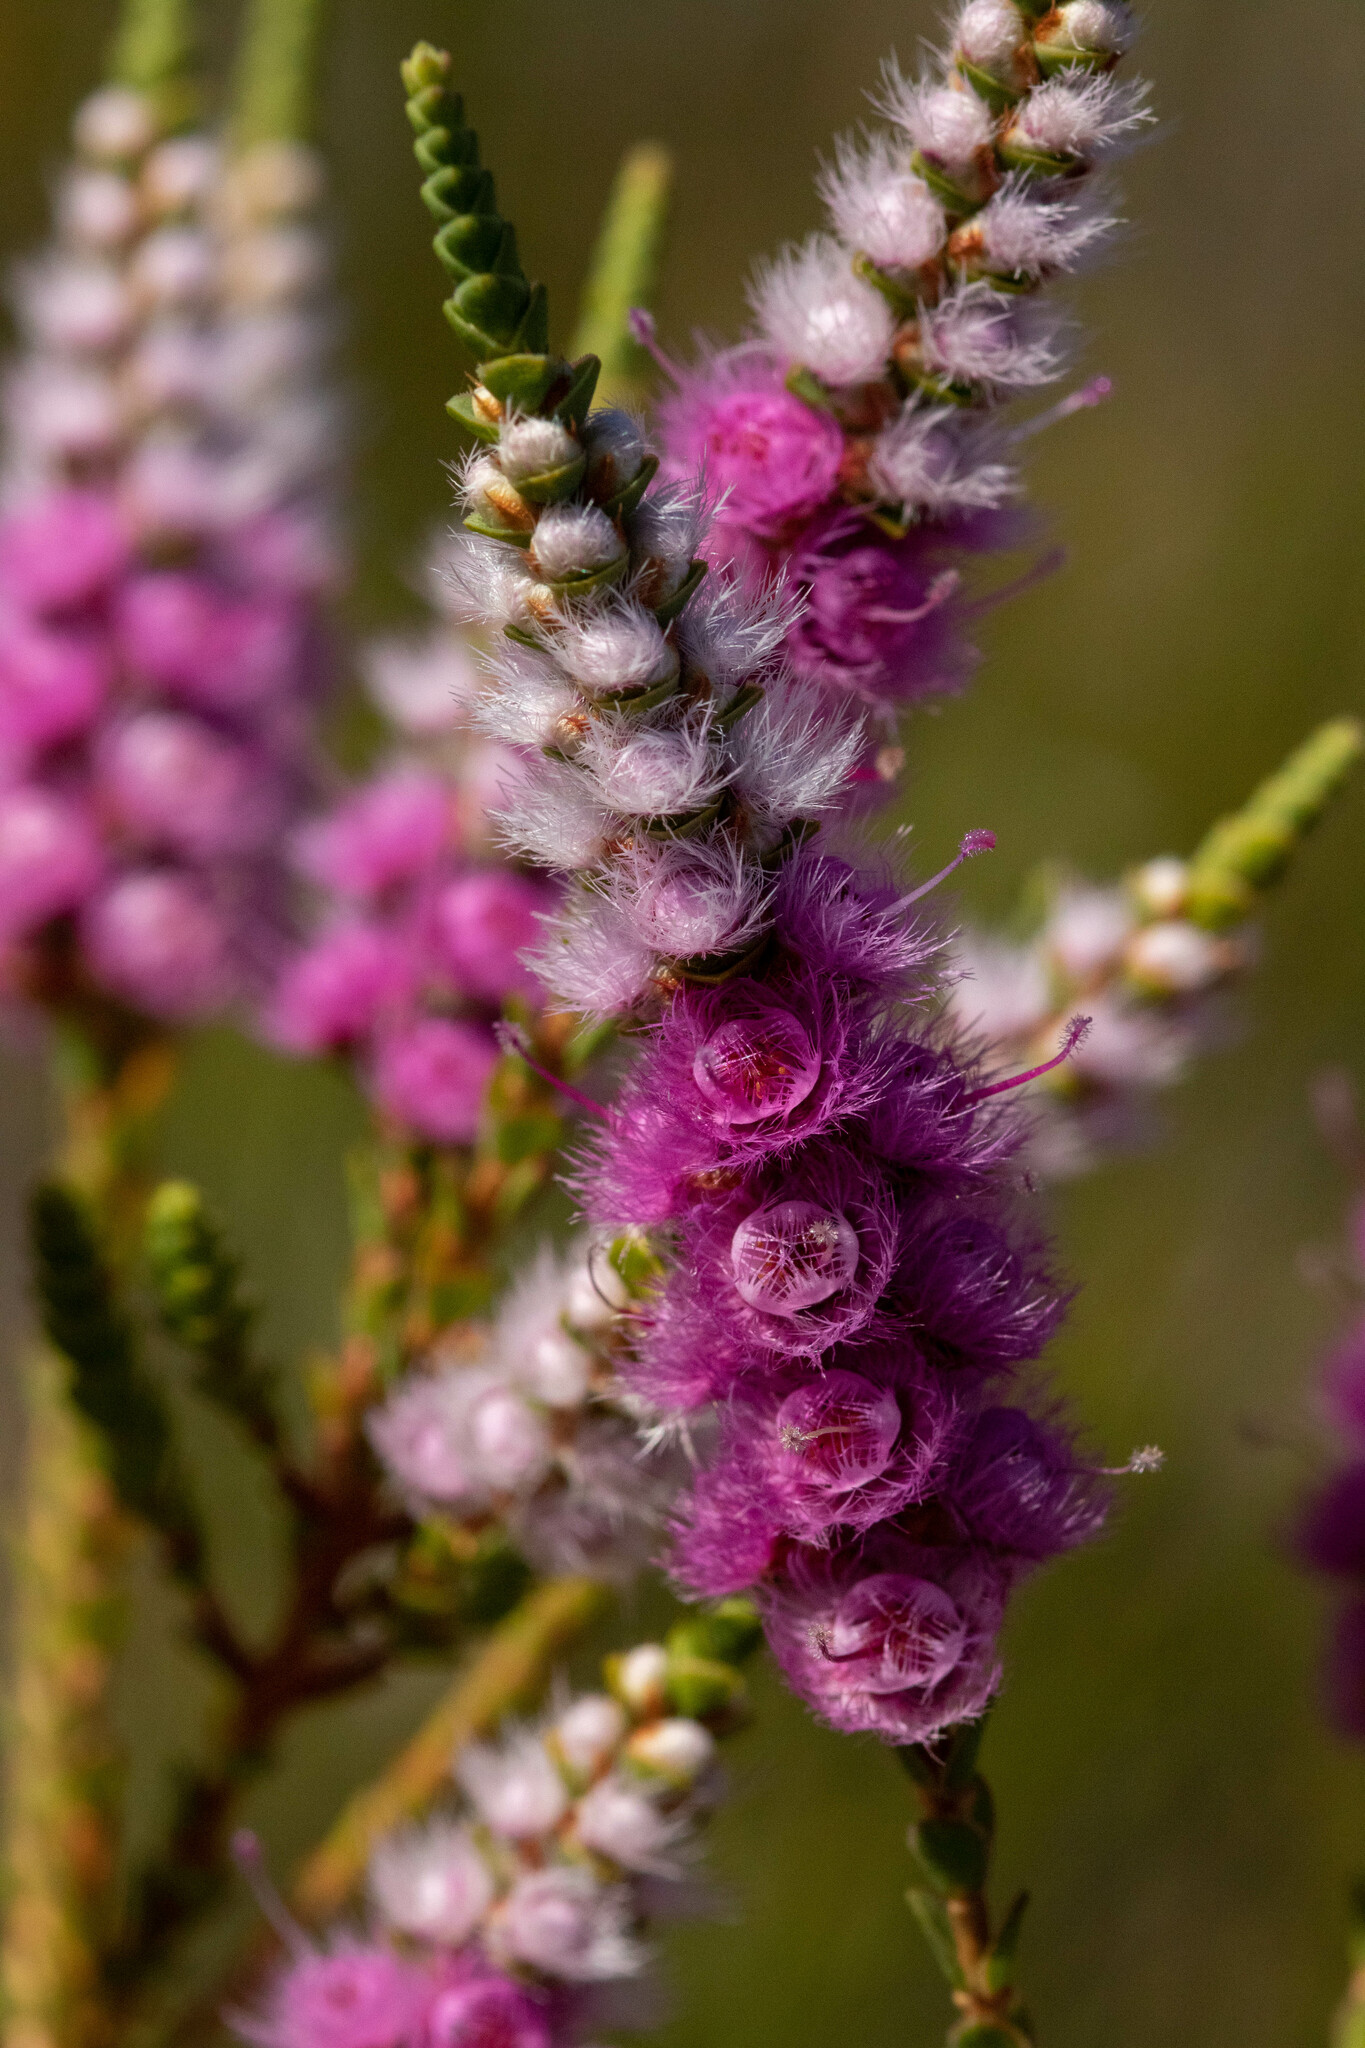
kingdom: Plantae
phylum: Tracheophyta
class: Magnoliopsida
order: Myrtales
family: Myrtaceae
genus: Verticordia
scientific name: Verticordia spicata
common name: Spike feather-flower
